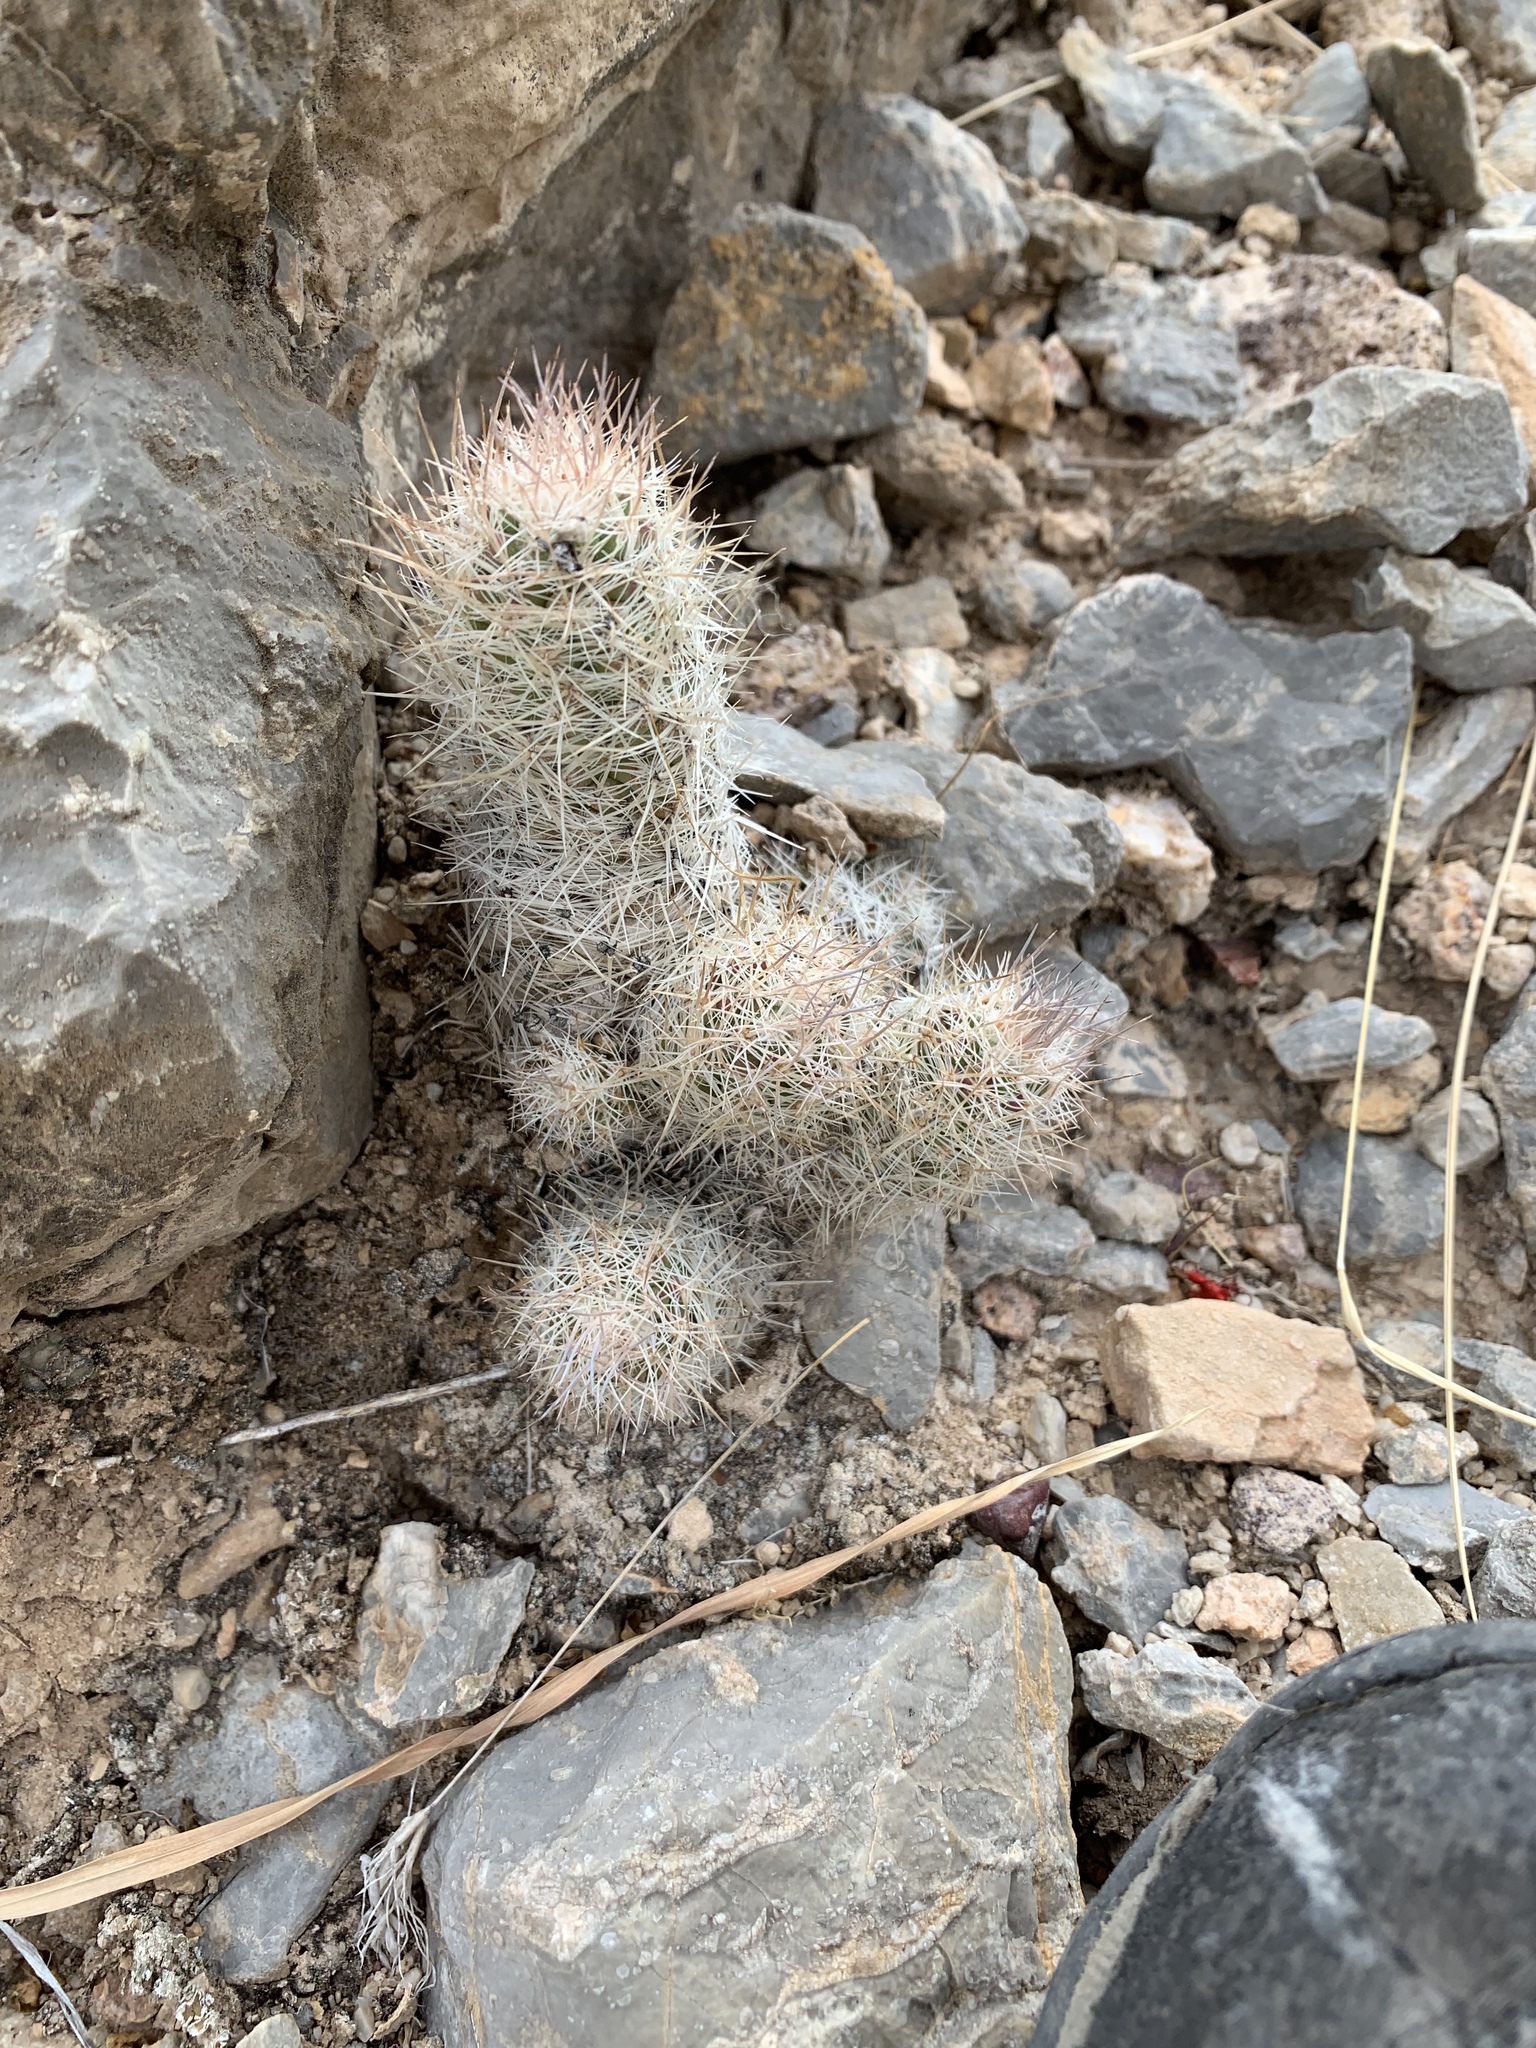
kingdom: Plantae
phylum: Tracheophyta
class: Magnoliopsida
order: Caryophyllales
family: Cactaceae
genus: Pelecyphora
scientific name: Pelecyphora tuberculosa
